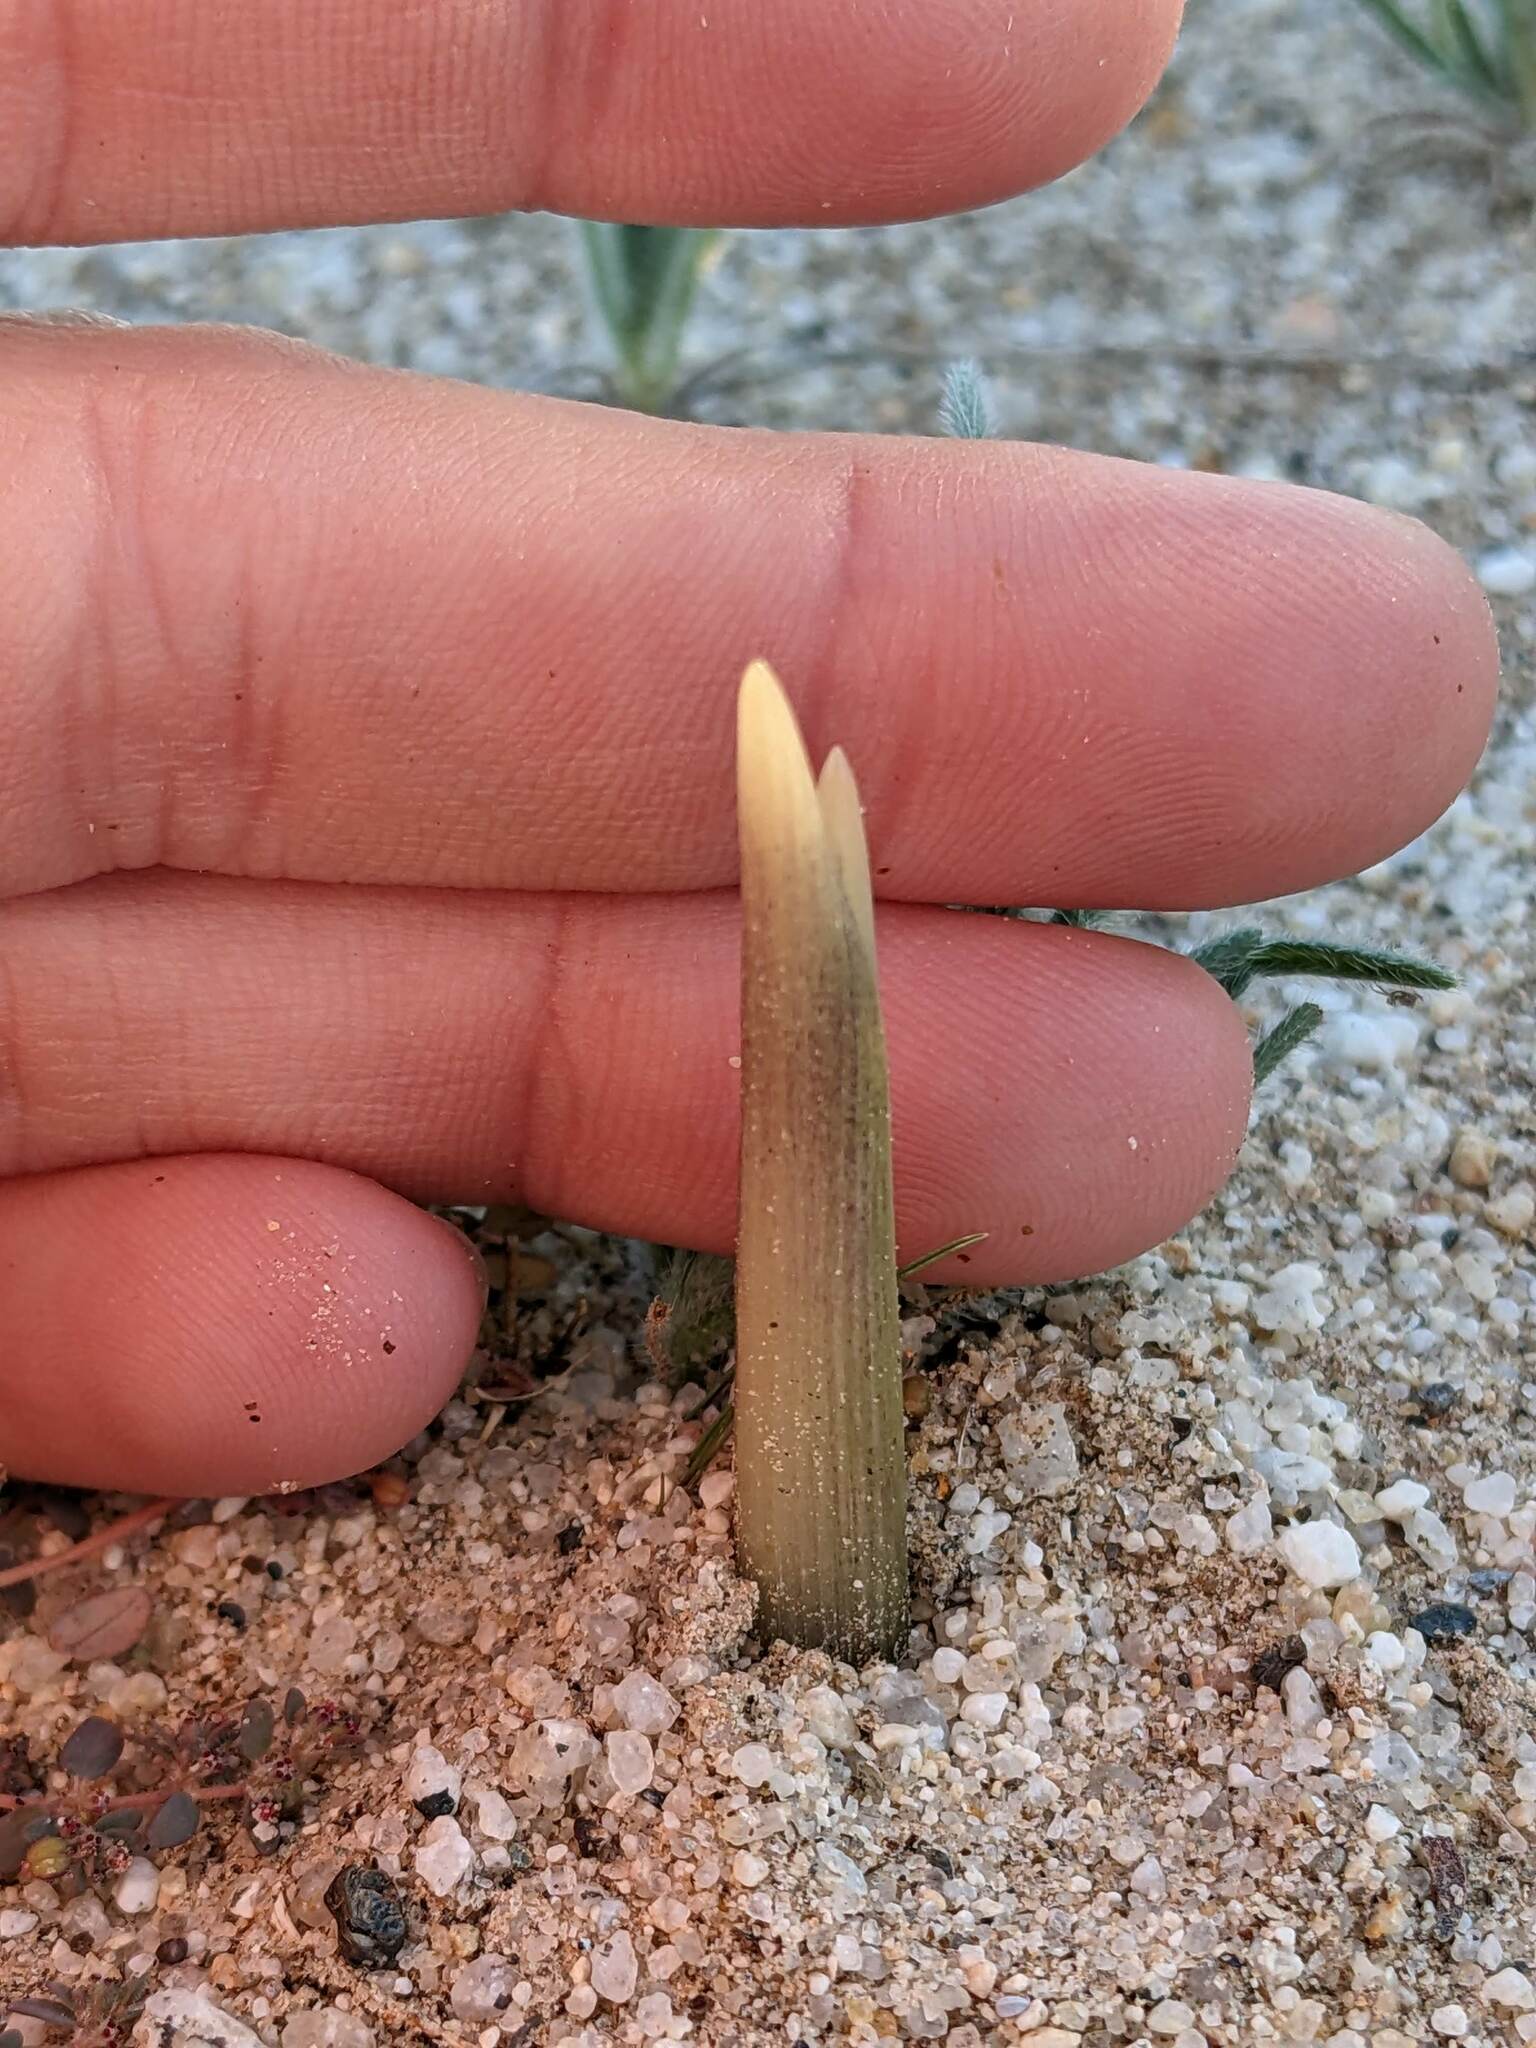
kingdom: Plantae
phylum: Tracheophyta
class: Liliopsida
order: Asparagales
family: Asparagaceae
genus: Hesperocallis
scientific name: Hesperocallis undulata
